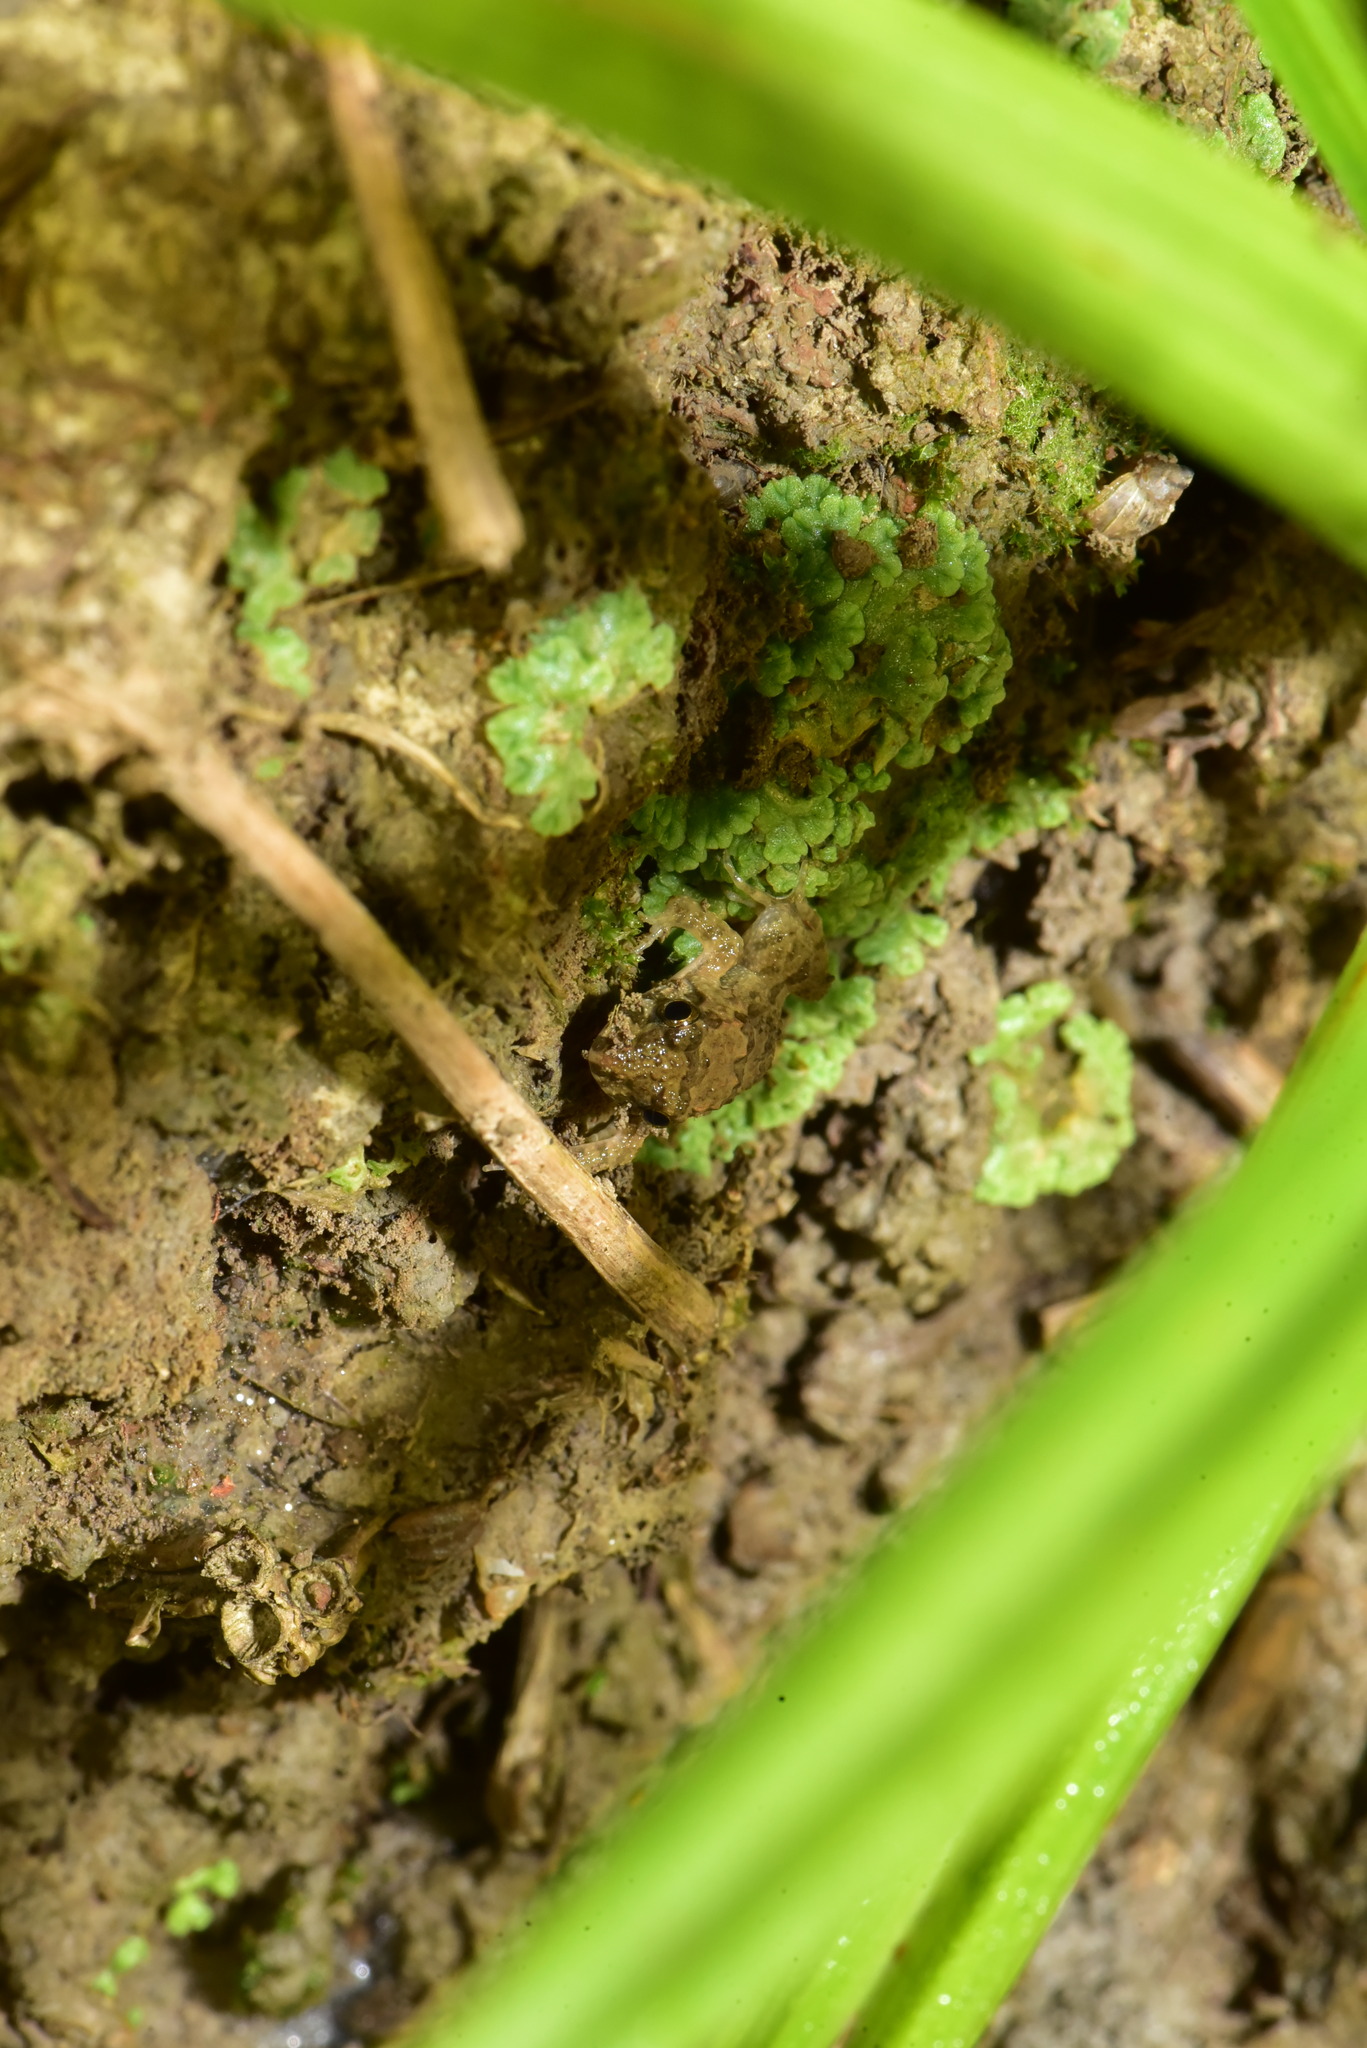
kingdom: Animalia
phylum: Chordata
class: Amphibia
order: Anura
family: Dicroglossidae
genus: Fejervarya
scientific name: Fejervarya limnocharis
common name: Asian grass frog/common pond frog/field frog/grass frog/indian rice frog
